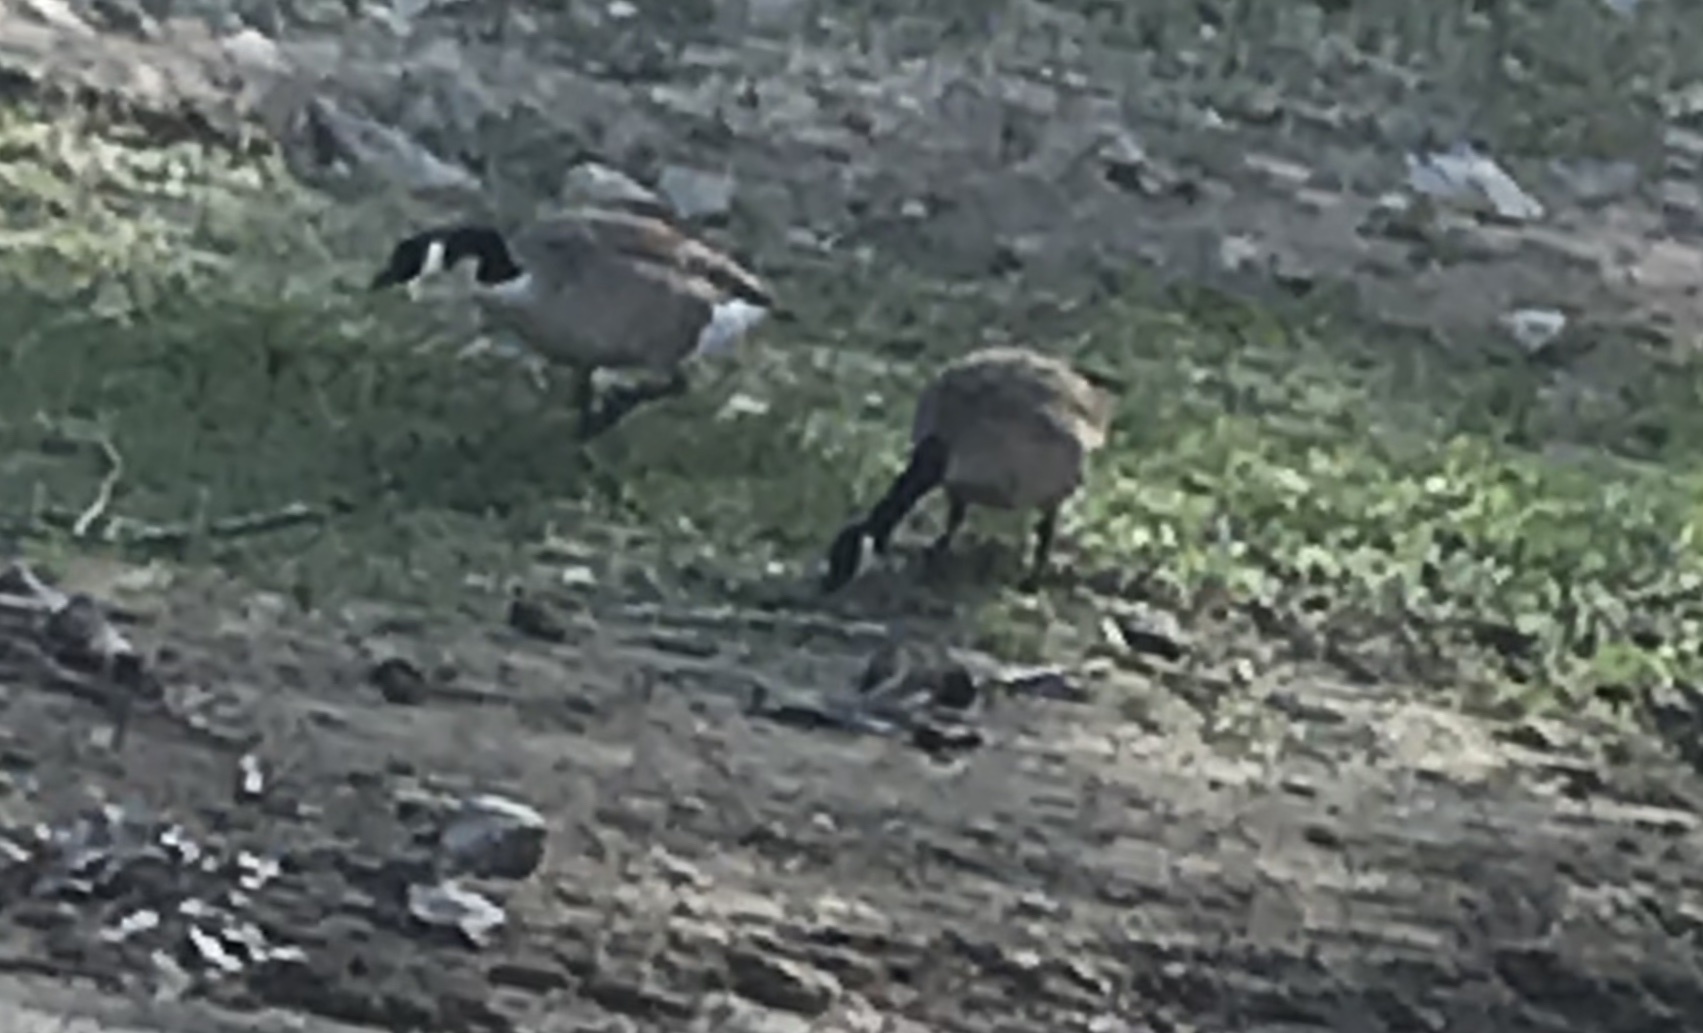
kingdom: Animalia
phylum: Chordata
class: Aves
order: Anseriformes
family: Anatidae
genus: Branta
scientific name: Branta canadensis
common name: Canada goose
